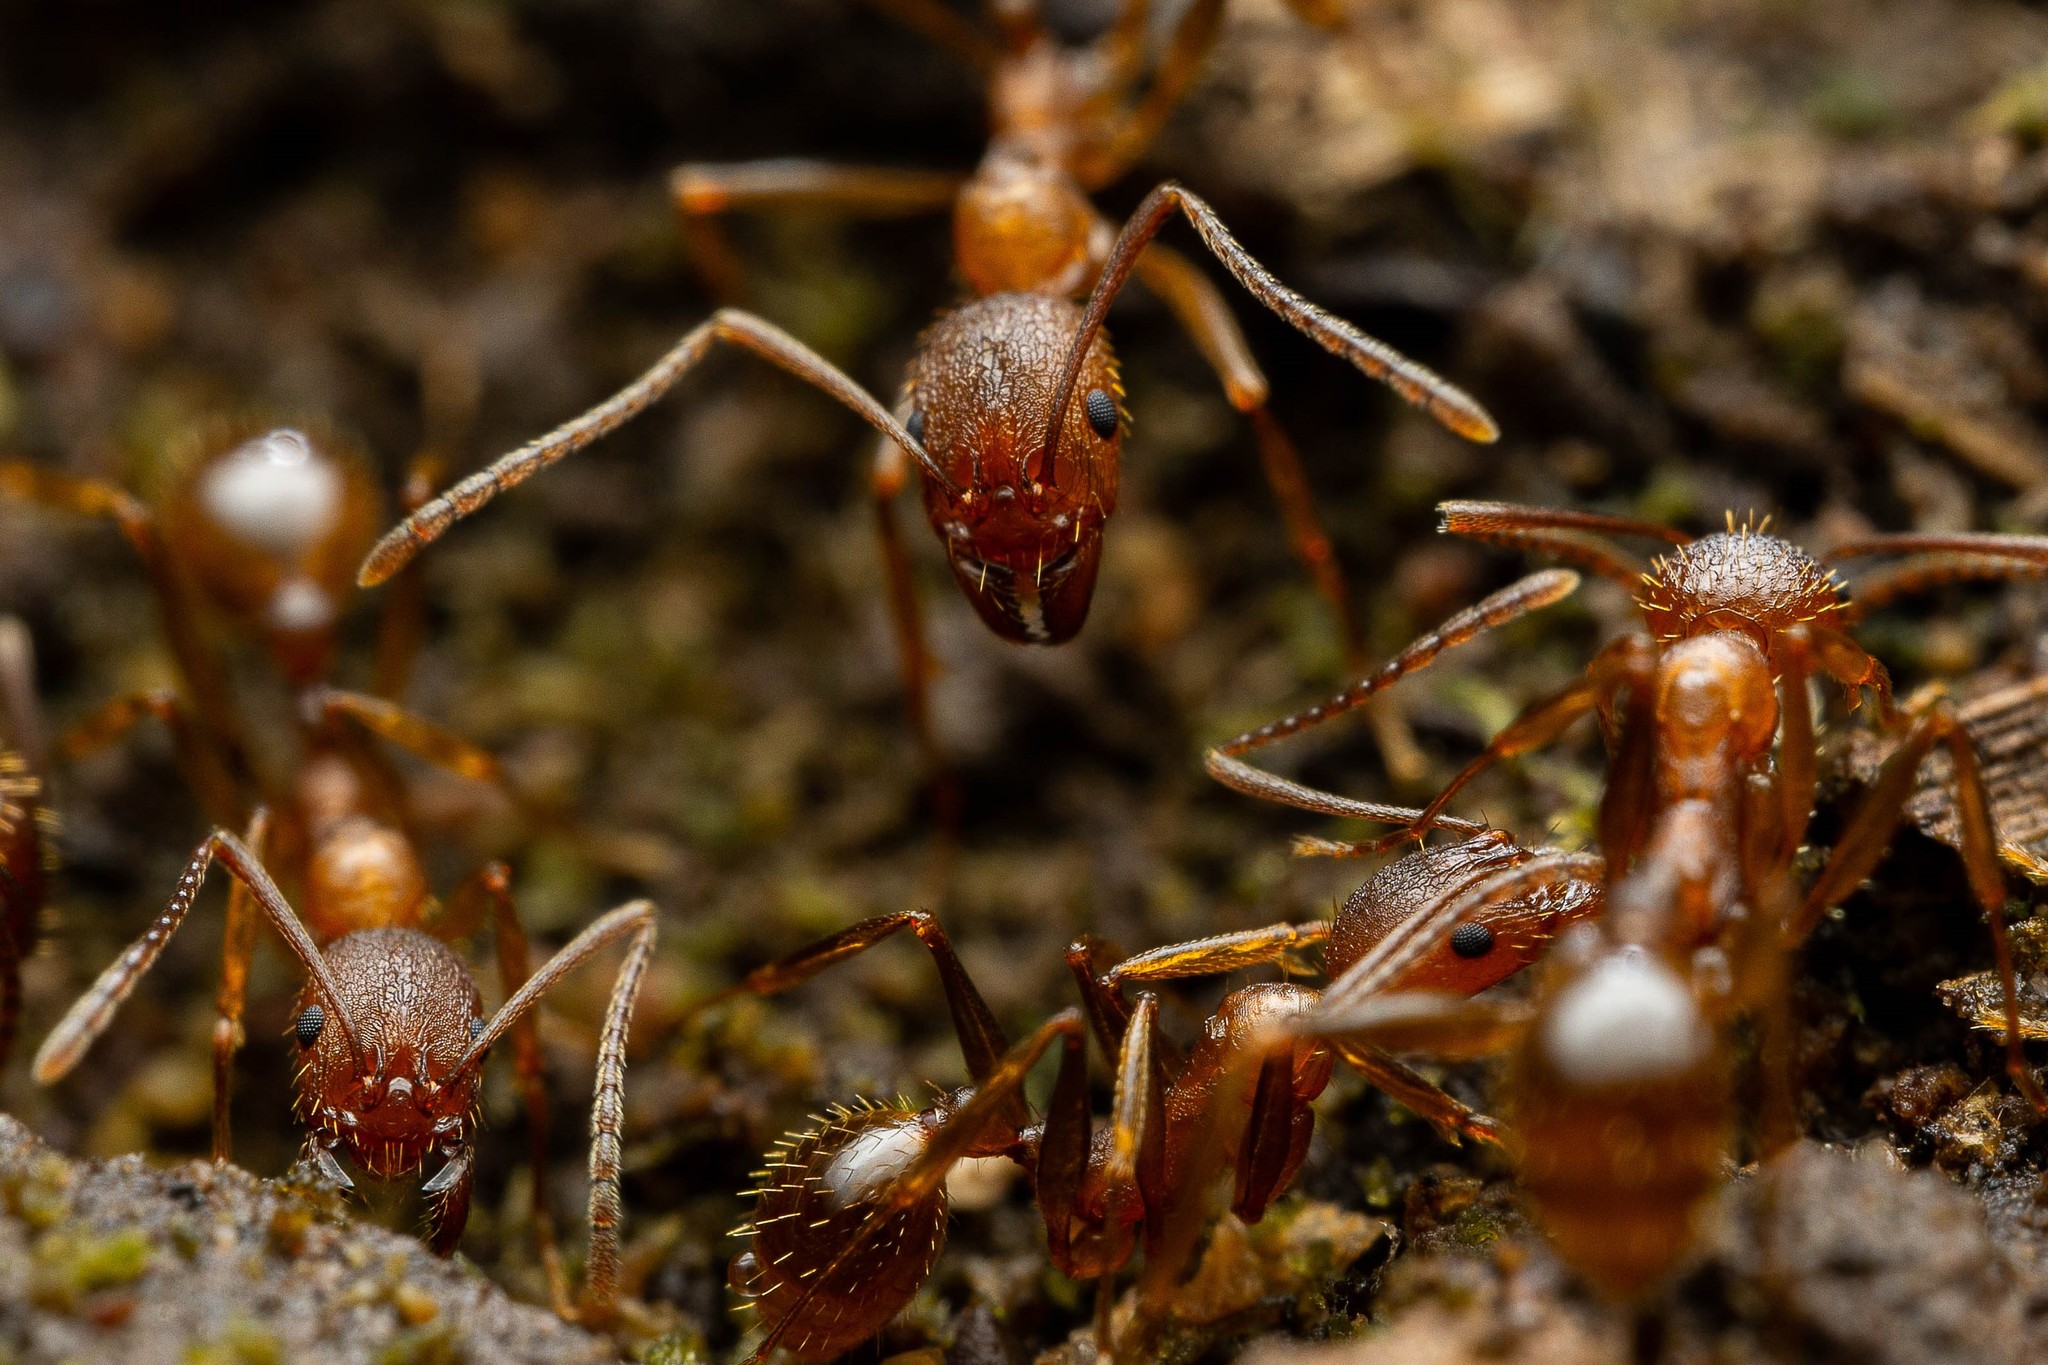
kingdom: Animalia
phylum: Arthropoda
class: Insecta
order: Hymenoptera
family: Formicidae
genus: Aphaenogaster
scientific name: Aphaenogaster texana
